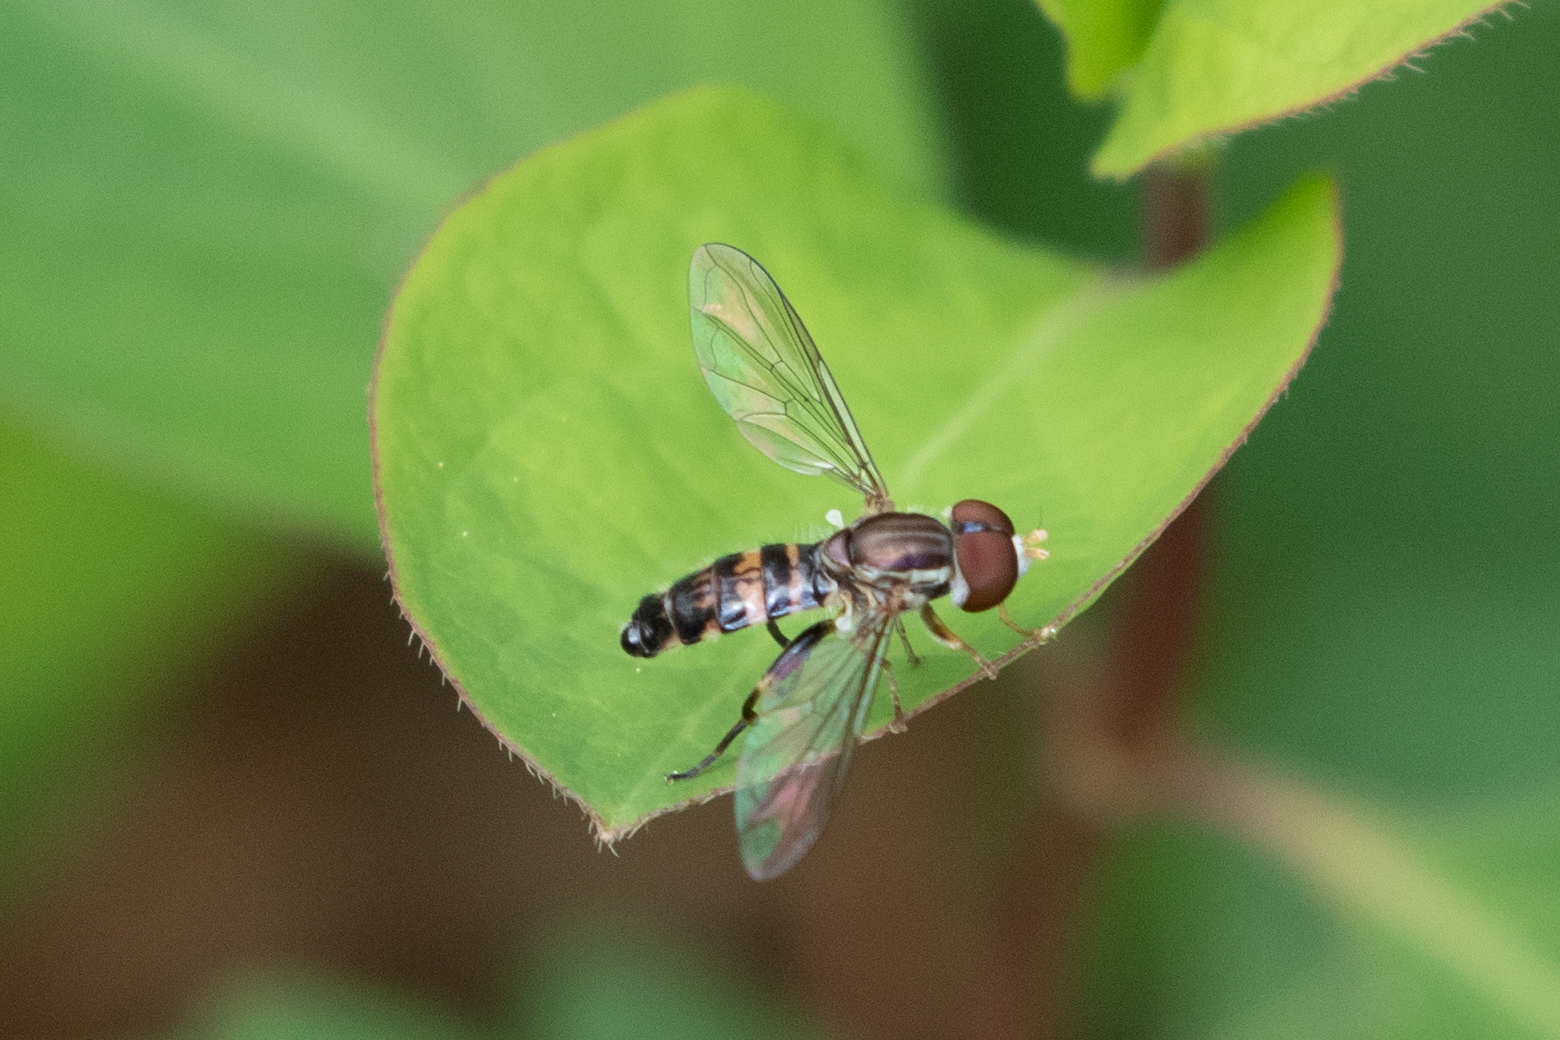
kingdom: Animalia
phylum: Arthropoda
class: Insecta
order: Diptera
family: Syrphidae
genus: Toxomerus
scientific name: Toxomerus geminatus
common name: Eastern calligrapher
